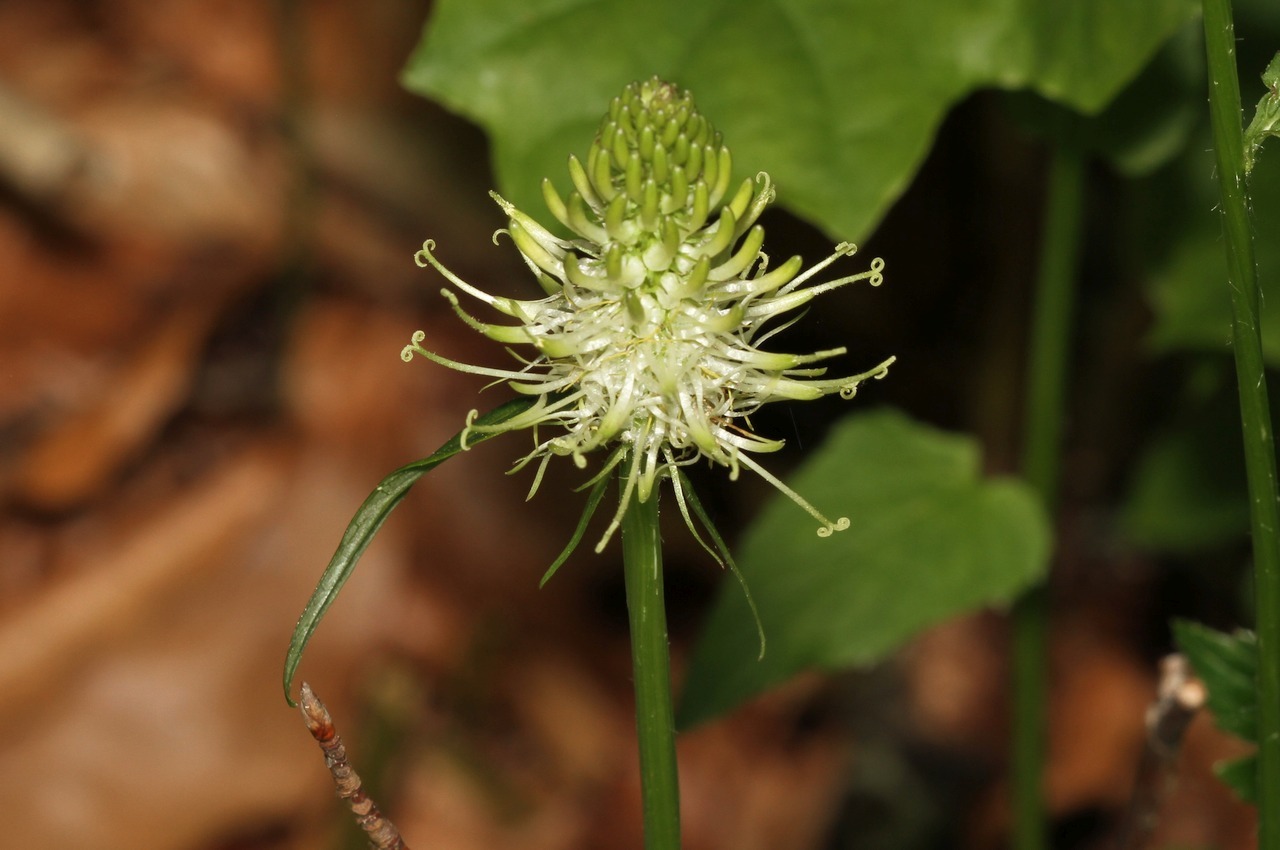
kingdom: Plantae
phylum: Tracheophyta
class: Magnoliopsida
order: Asterales
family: Campanulaceae
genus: Phyteuma
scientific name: Phyteuma spicatum
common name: Spiked rampion
